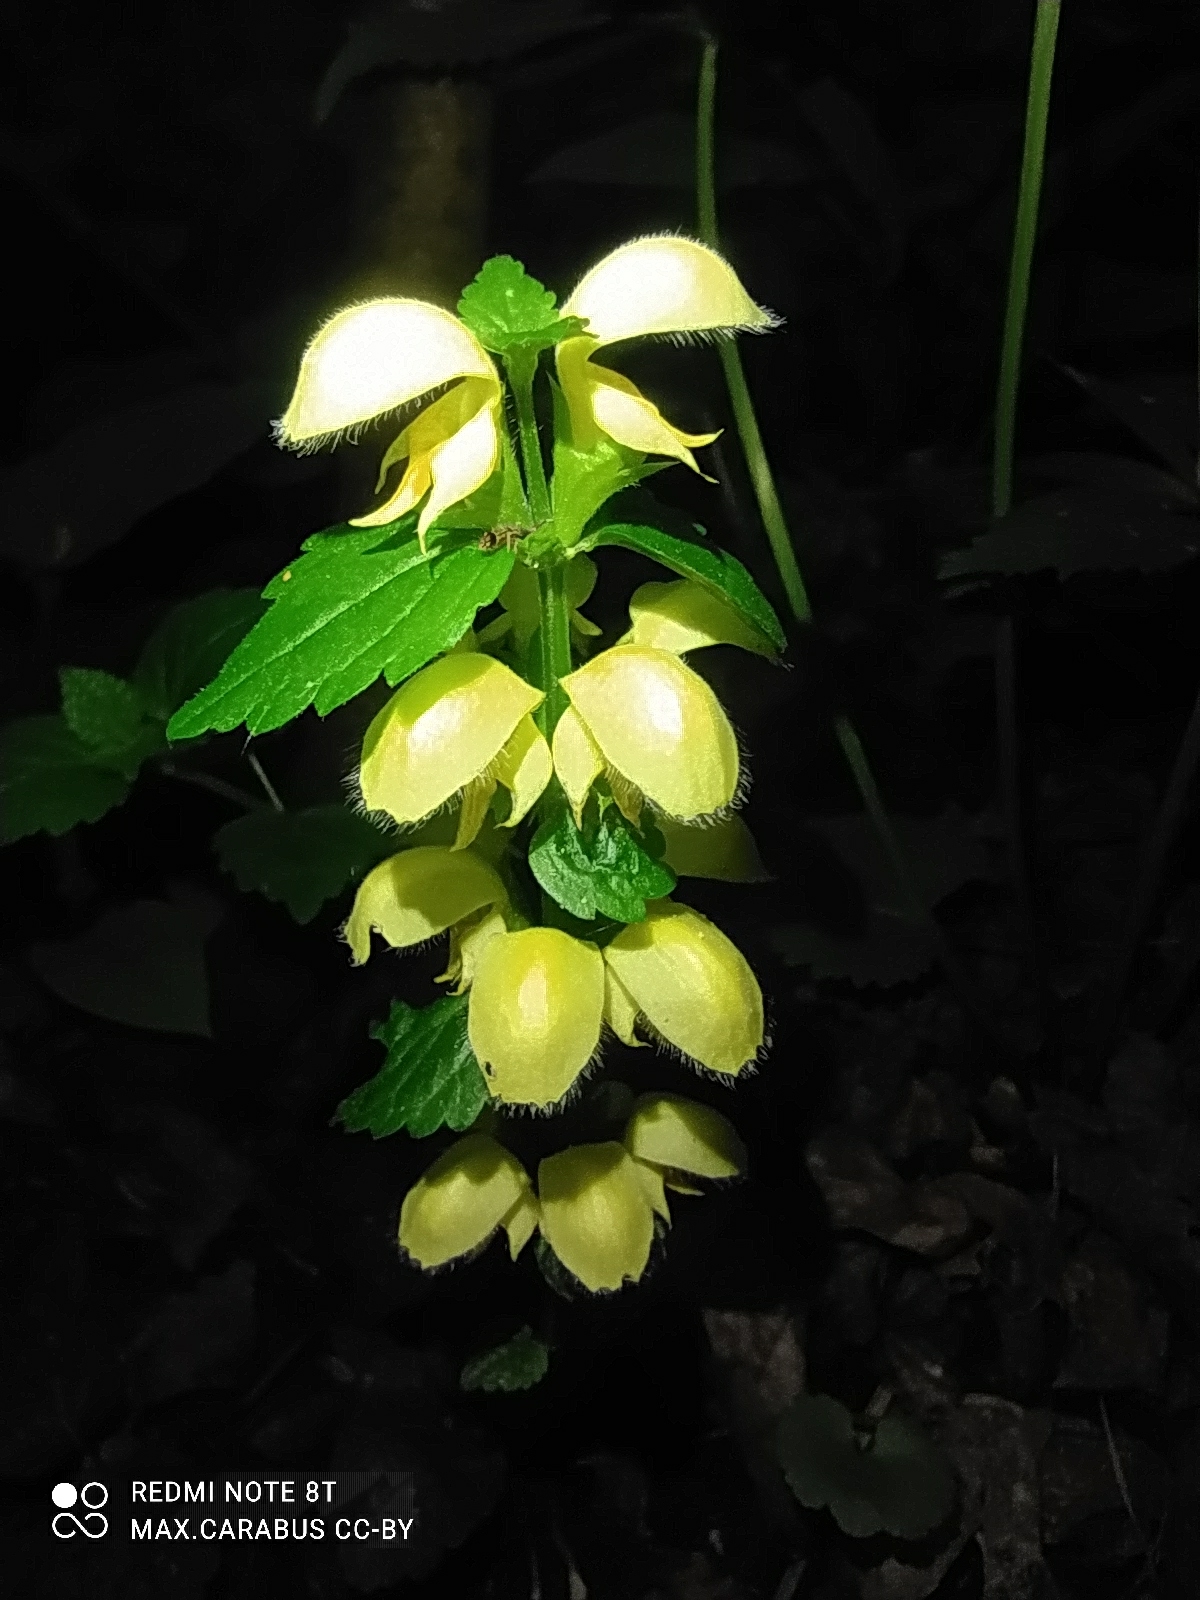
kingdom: Plantae
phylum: Tracheophyta
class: Magnoliopsida
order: Lamiales
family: Lamiaceae
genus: Lamium
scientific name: Lamium galeobdolon
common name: Yellow archangel
